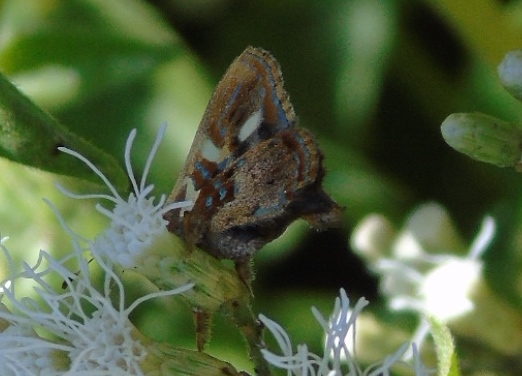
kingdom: Animalia
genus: Anteros
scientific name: Anteros carausius
